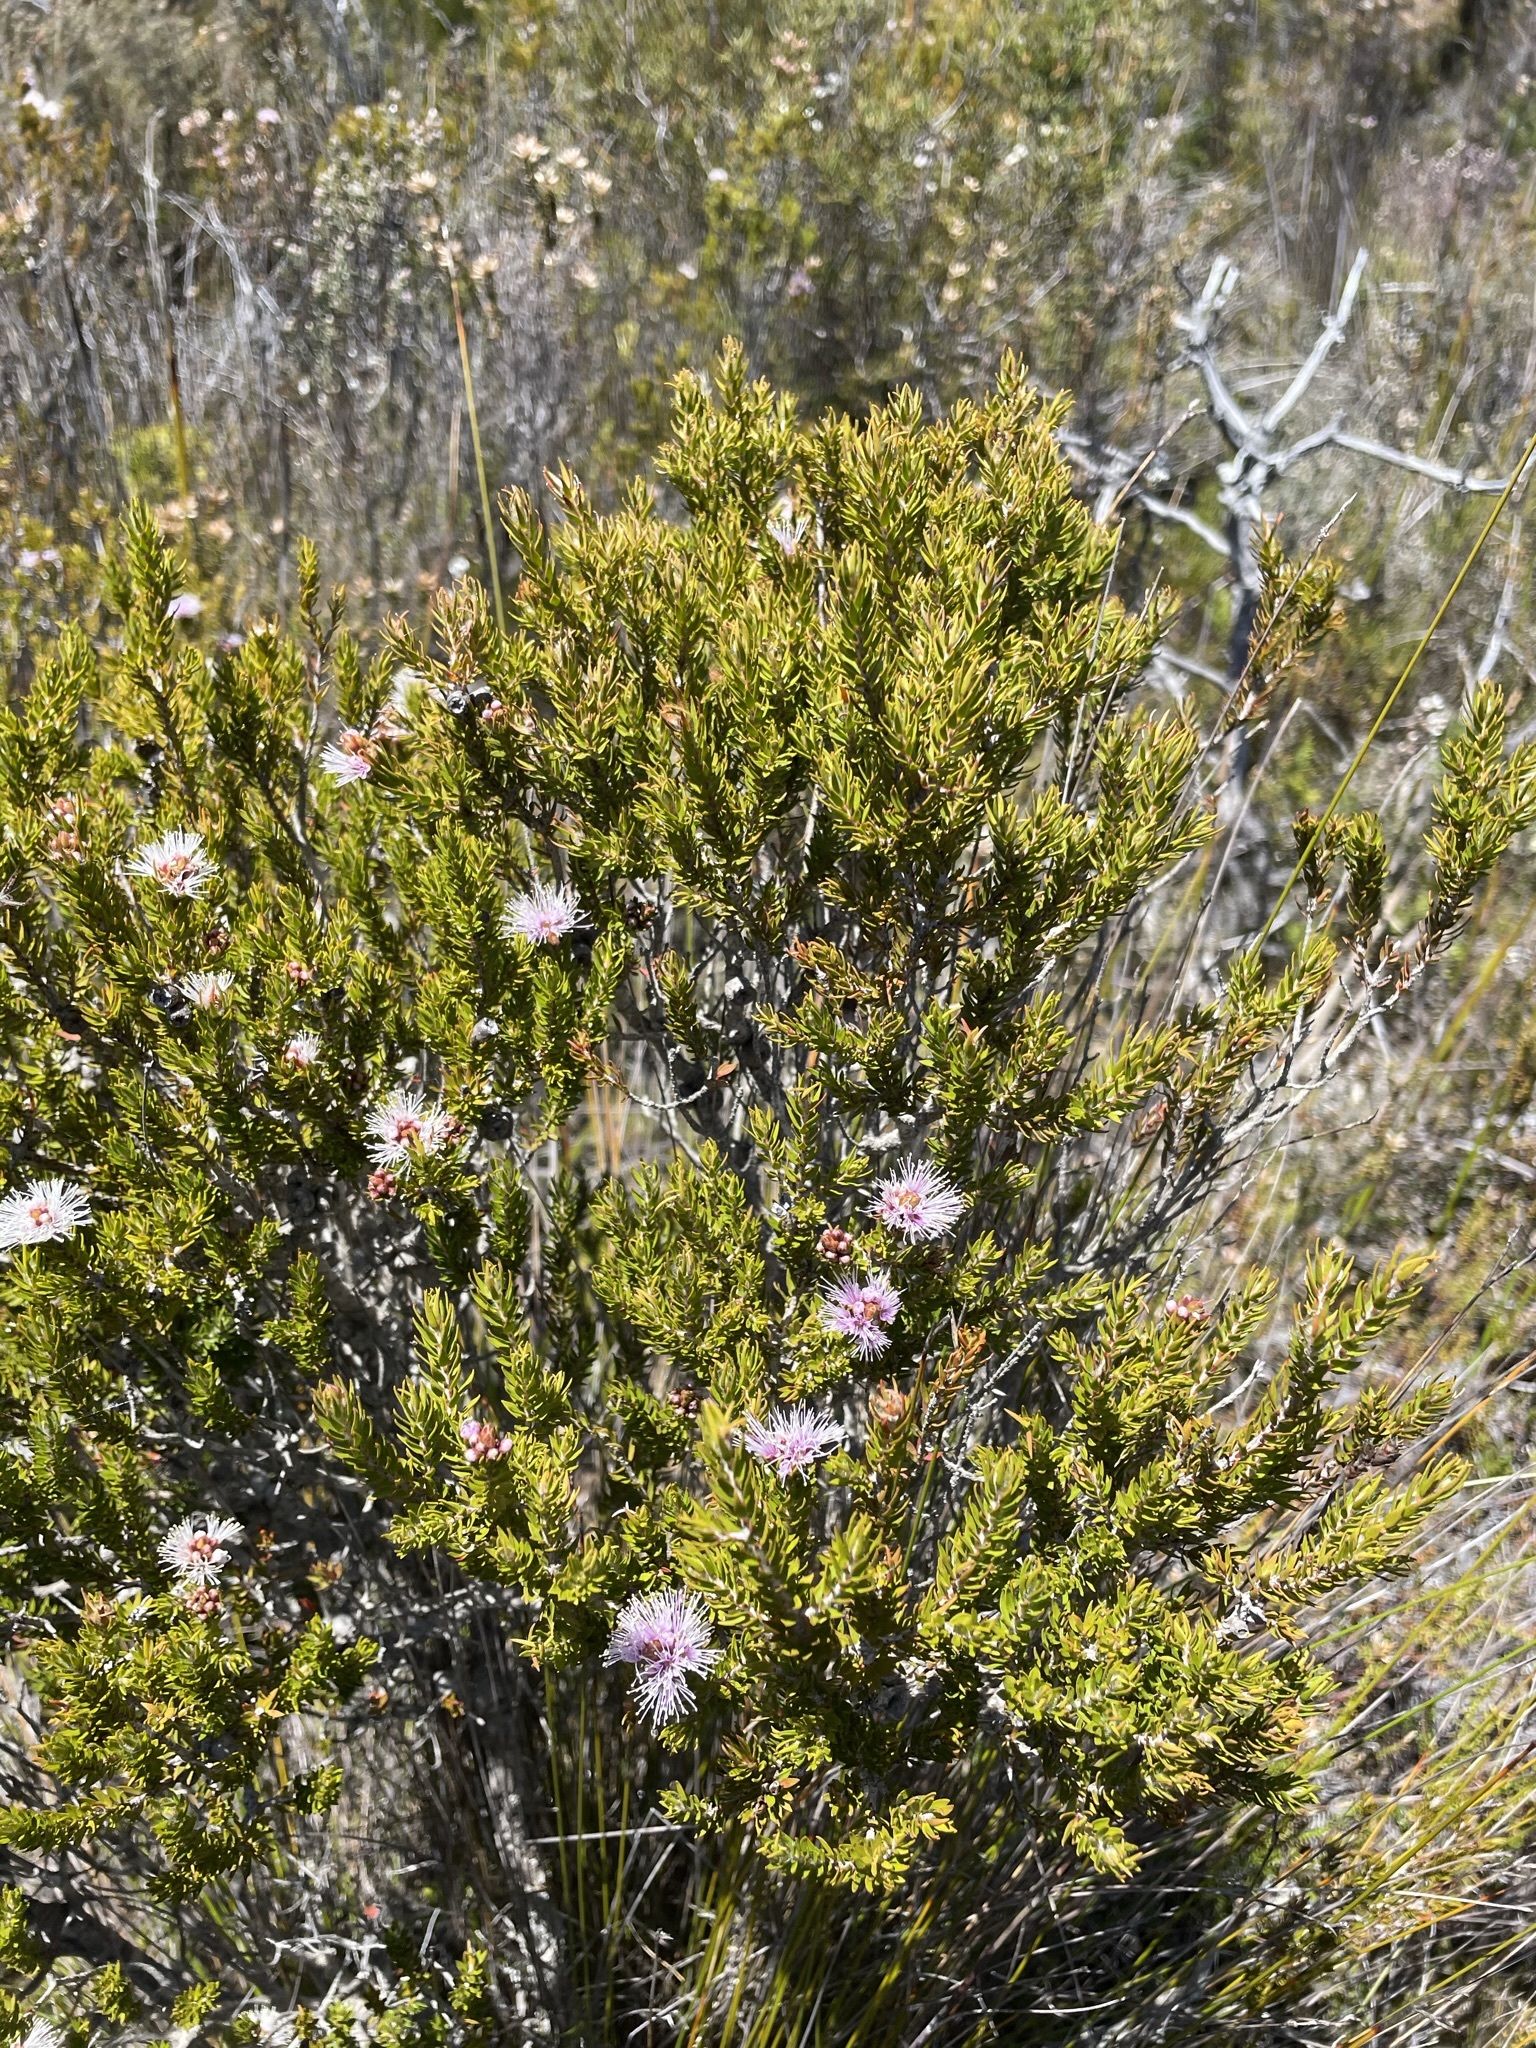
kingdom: Plantae
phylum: Tracheophyta
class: Magnoliopsida
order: Myrtales
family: Myrtaceae
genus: Melaleuca
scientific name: Melaleuca squamea
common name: Swamp melaleuca
